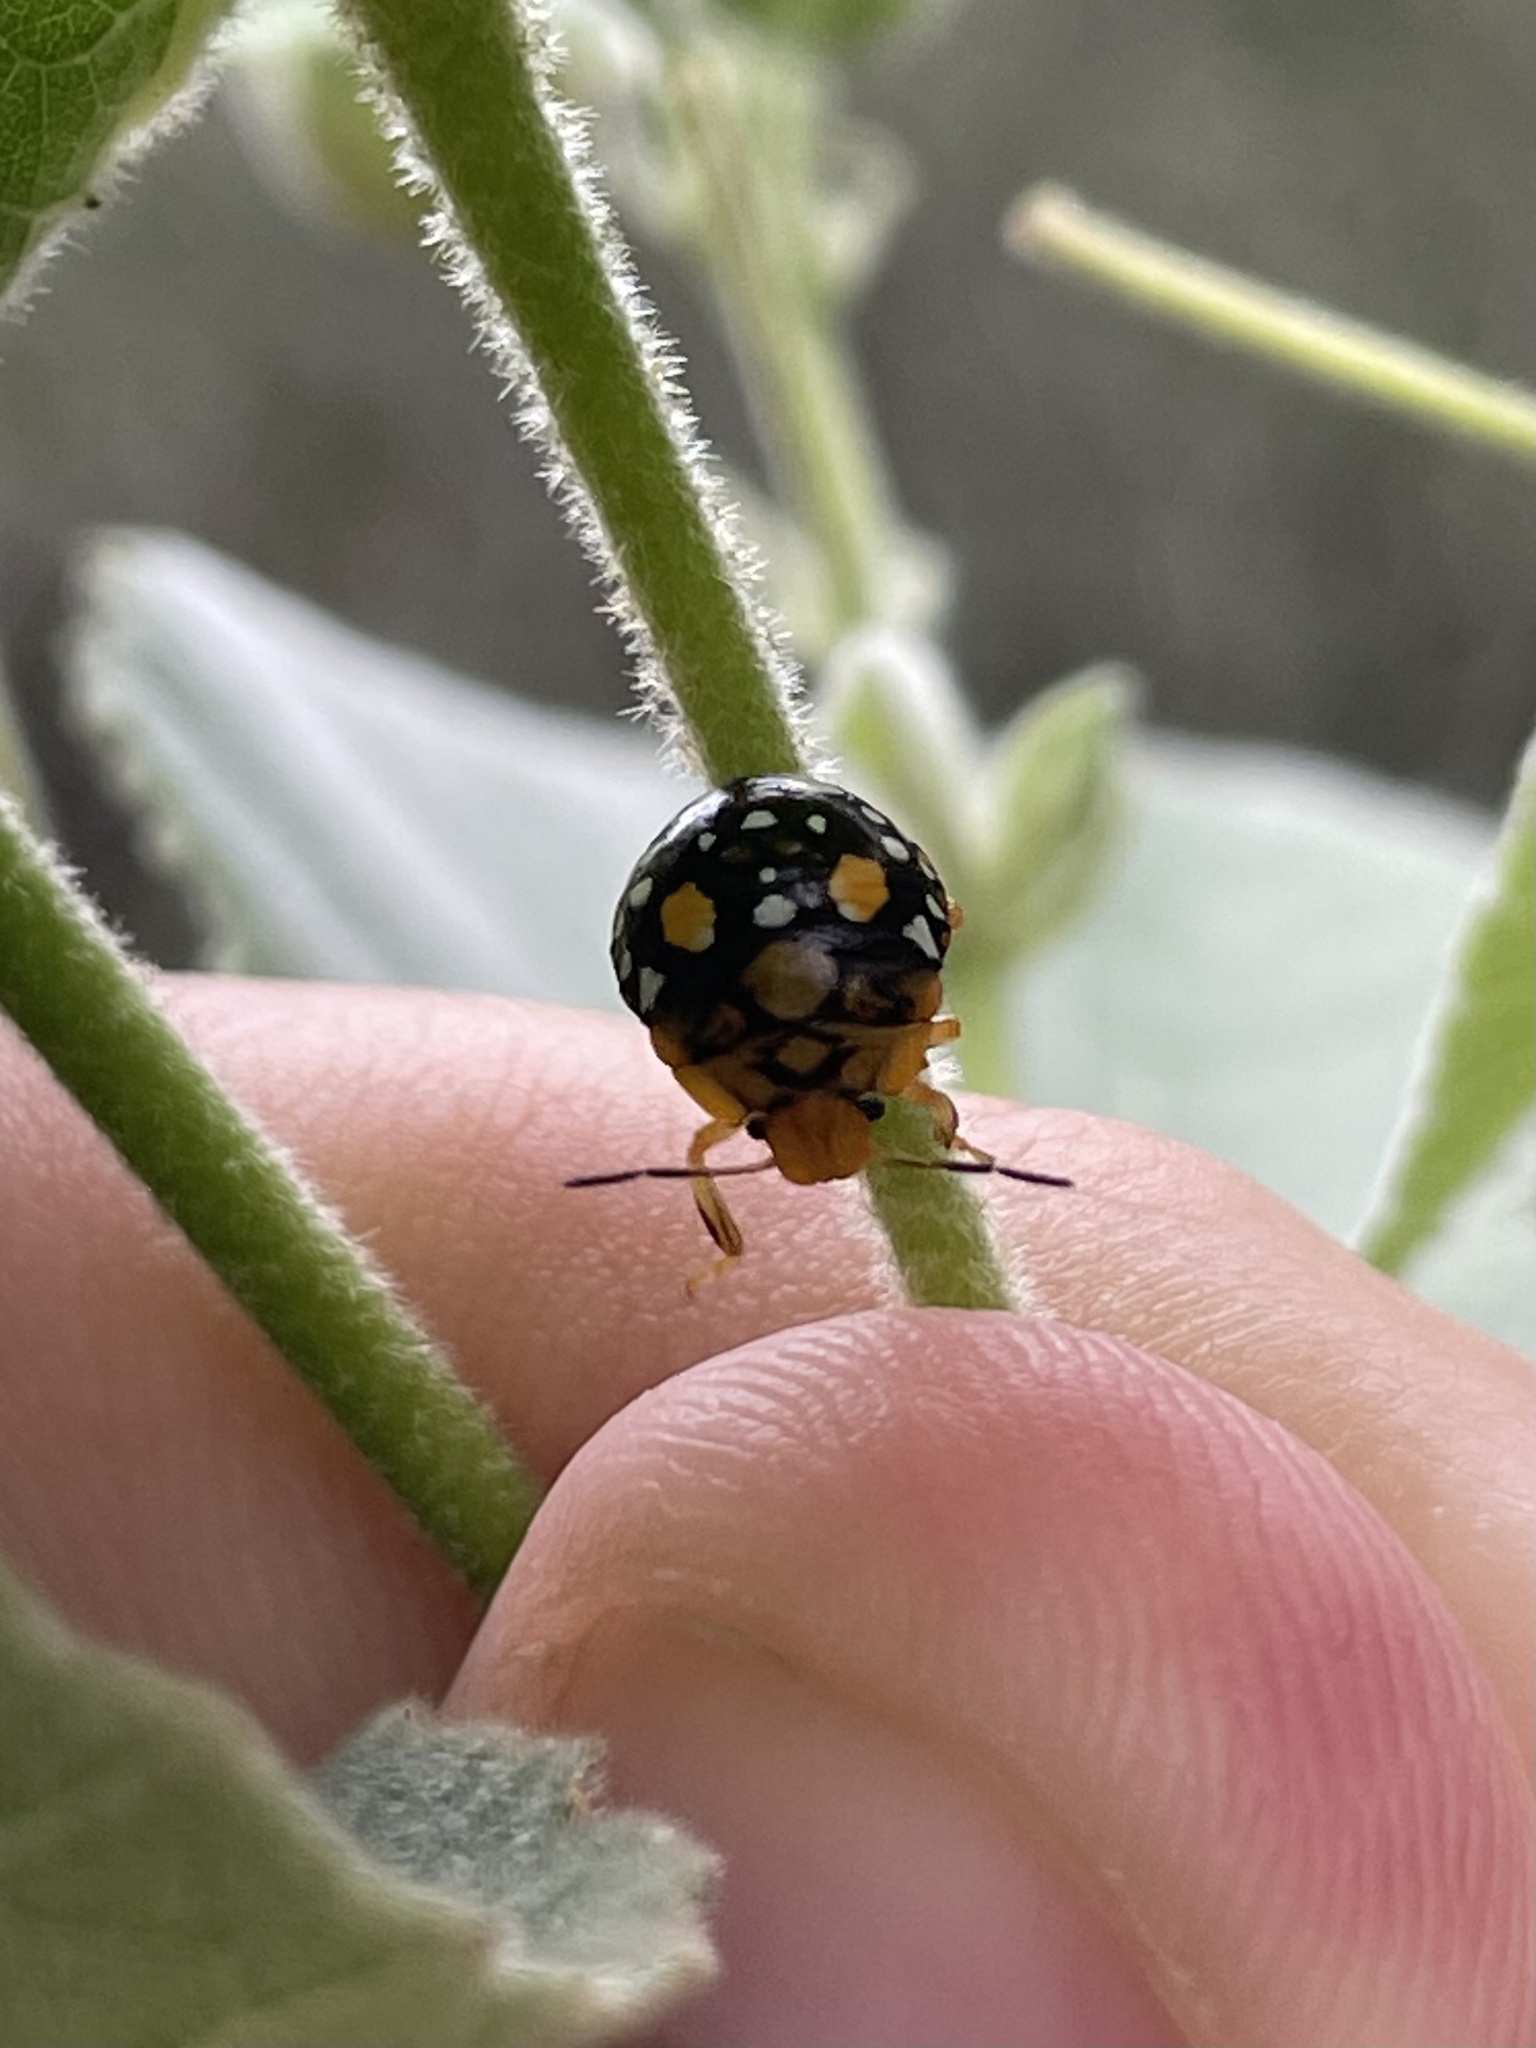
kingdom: Animalia
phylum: Arthropoda
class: Insecta
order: Hemiptera
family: Pentatomidae
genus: Acrosternum
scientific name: Acrosternum marginatum
